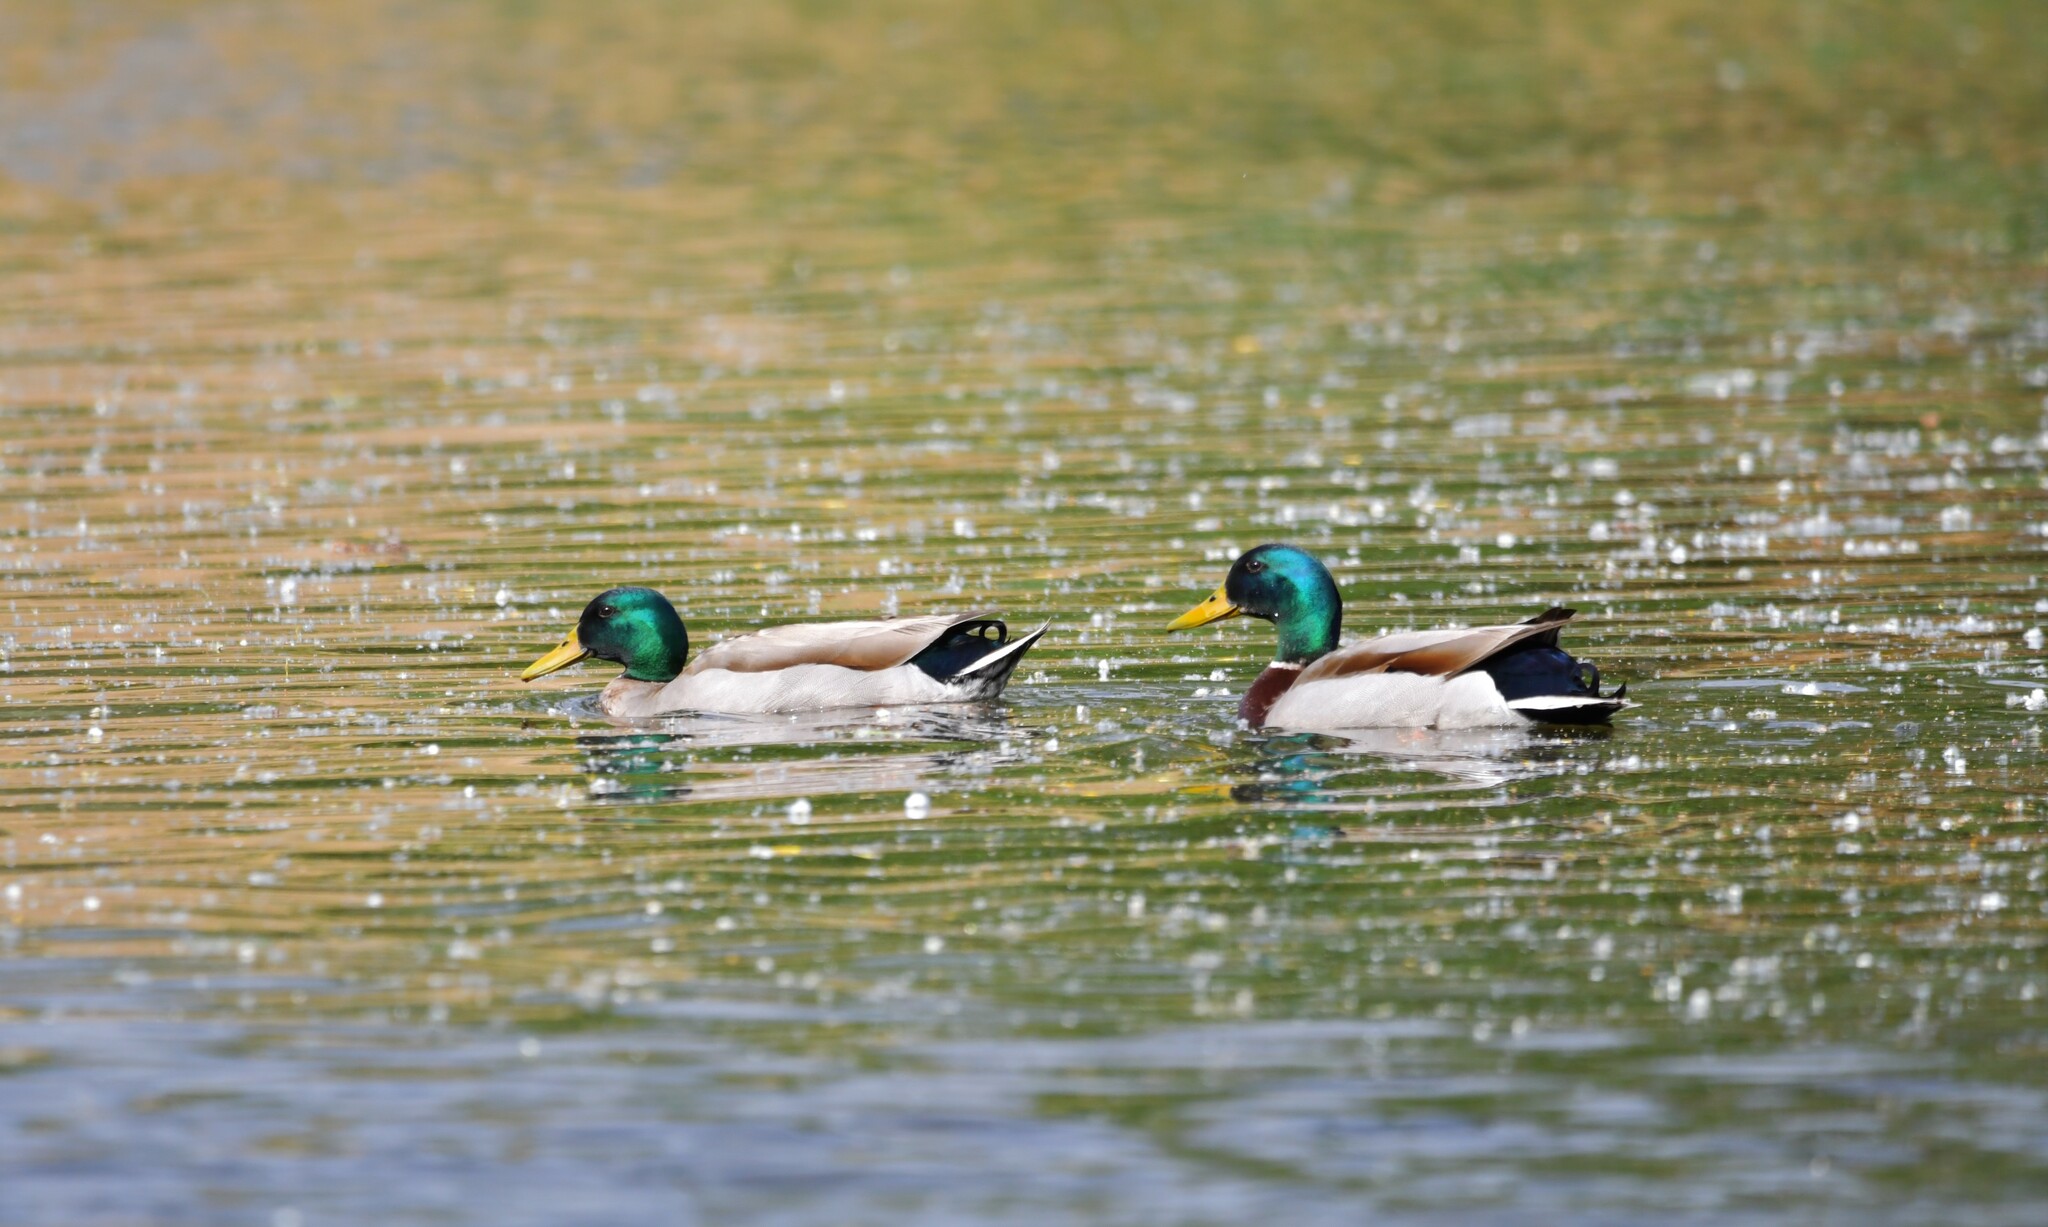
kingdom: Animalia
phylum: Chordata
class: Aves
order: Anseriformes
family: Anatidae
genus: Anas
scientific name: Anas platyrhynchos
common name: Mallard
